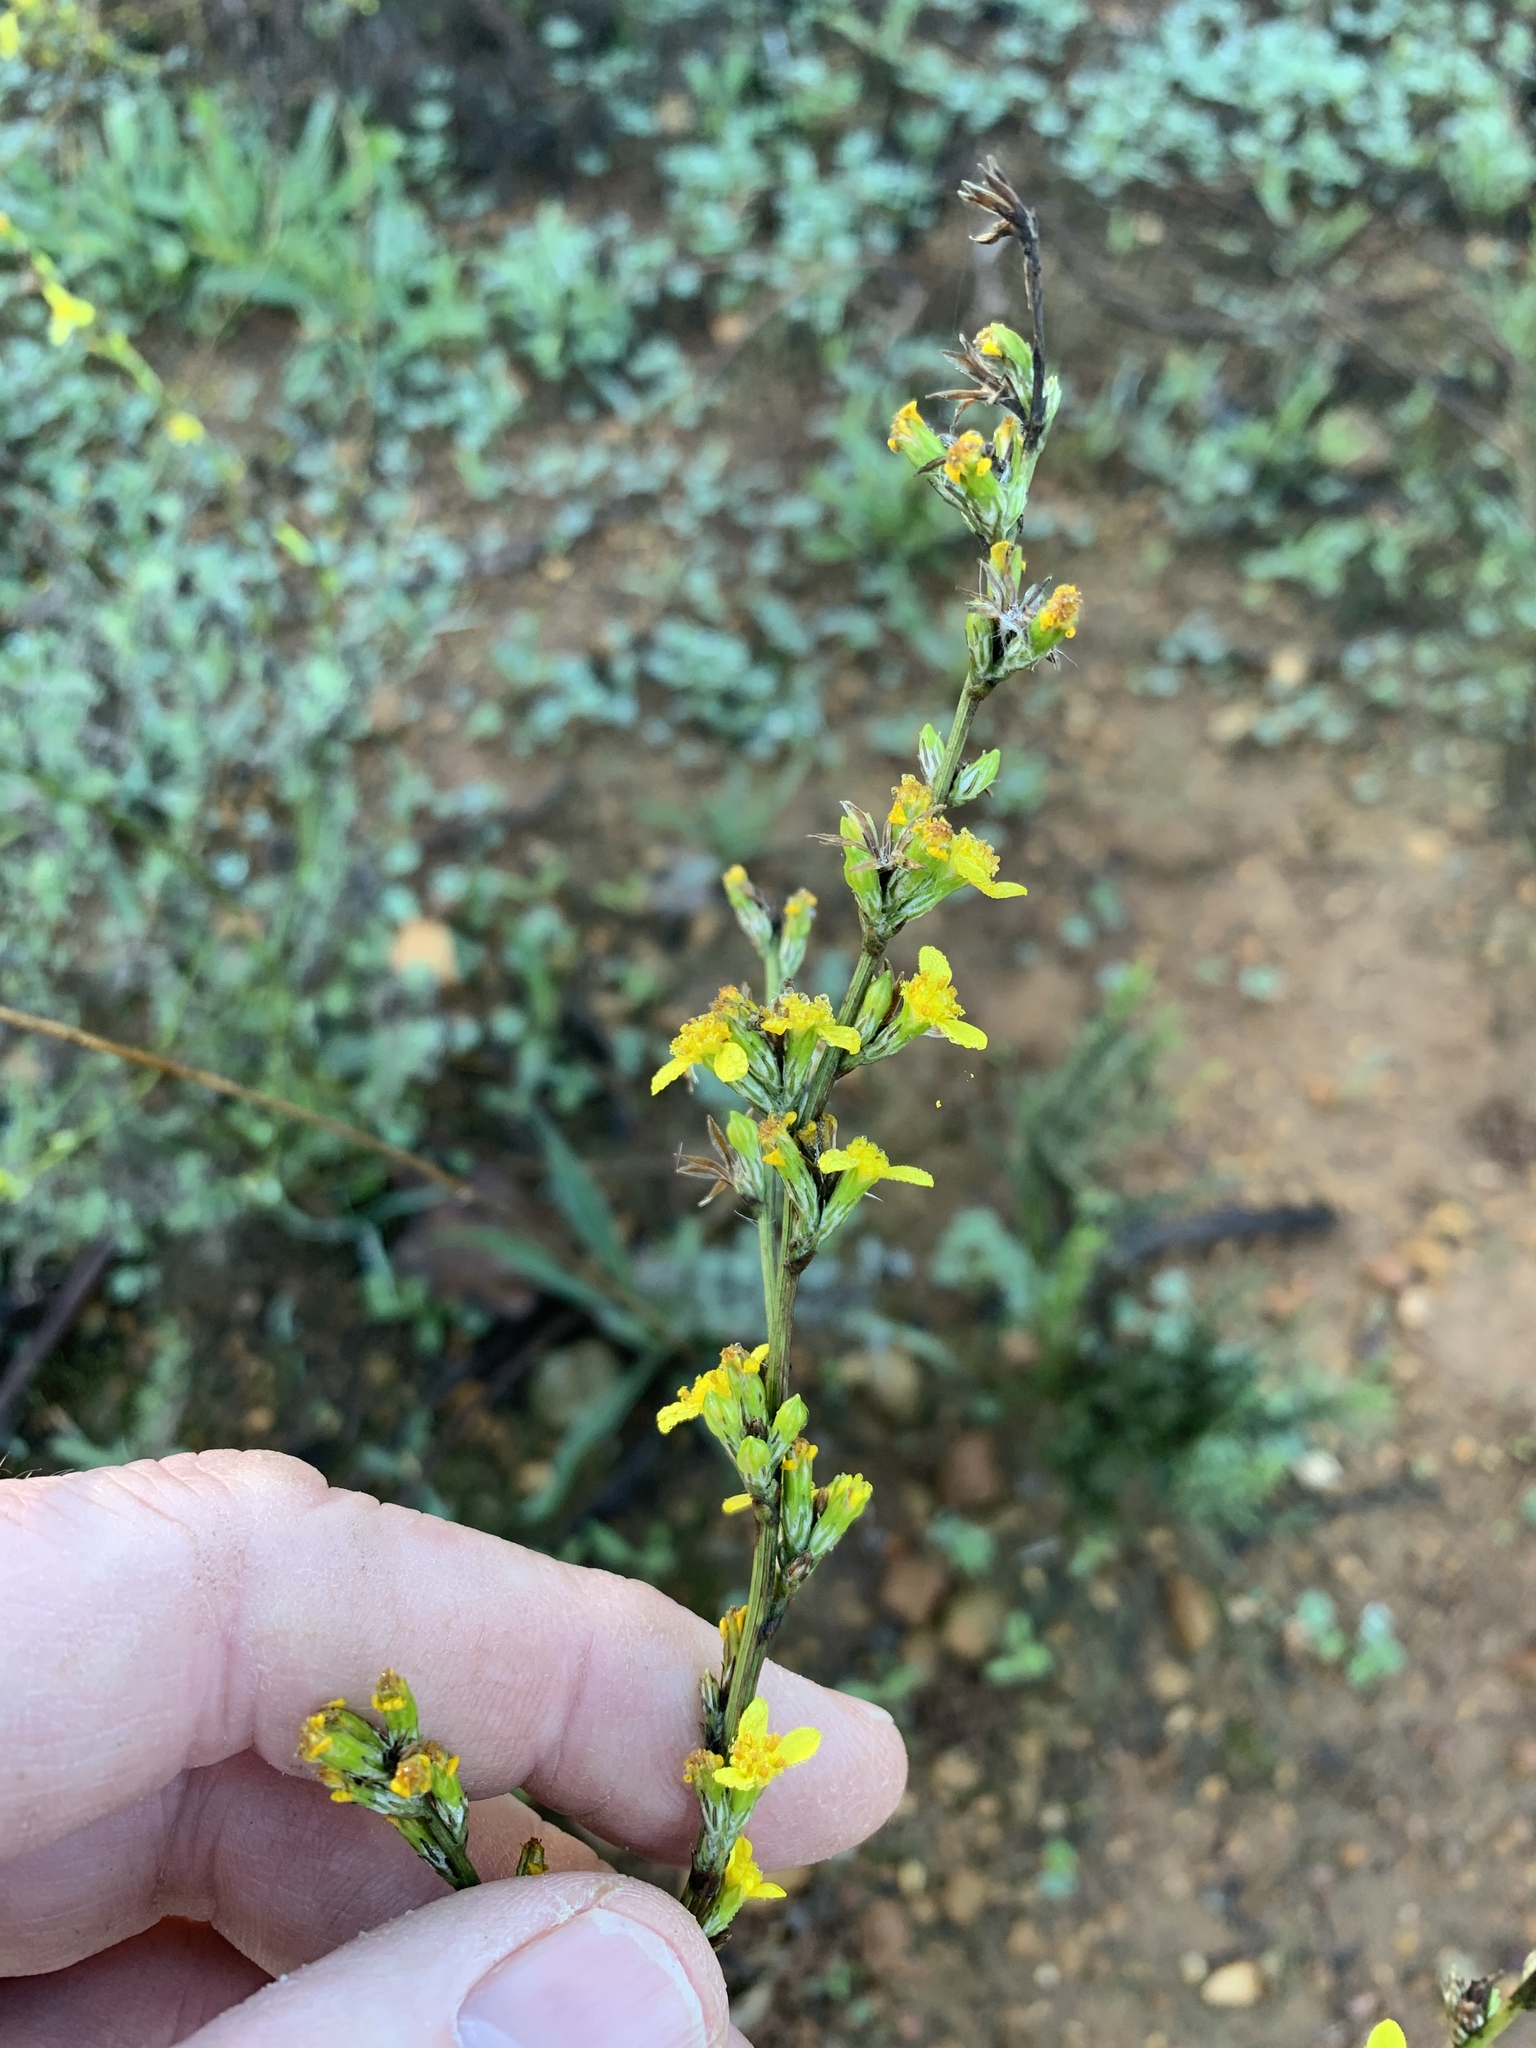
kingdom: Plantae
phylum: Tracheophyta
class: Magnoliopsida
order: Asterales
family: Asteraceae
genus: Senecio
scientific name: Senecio pubigerus
